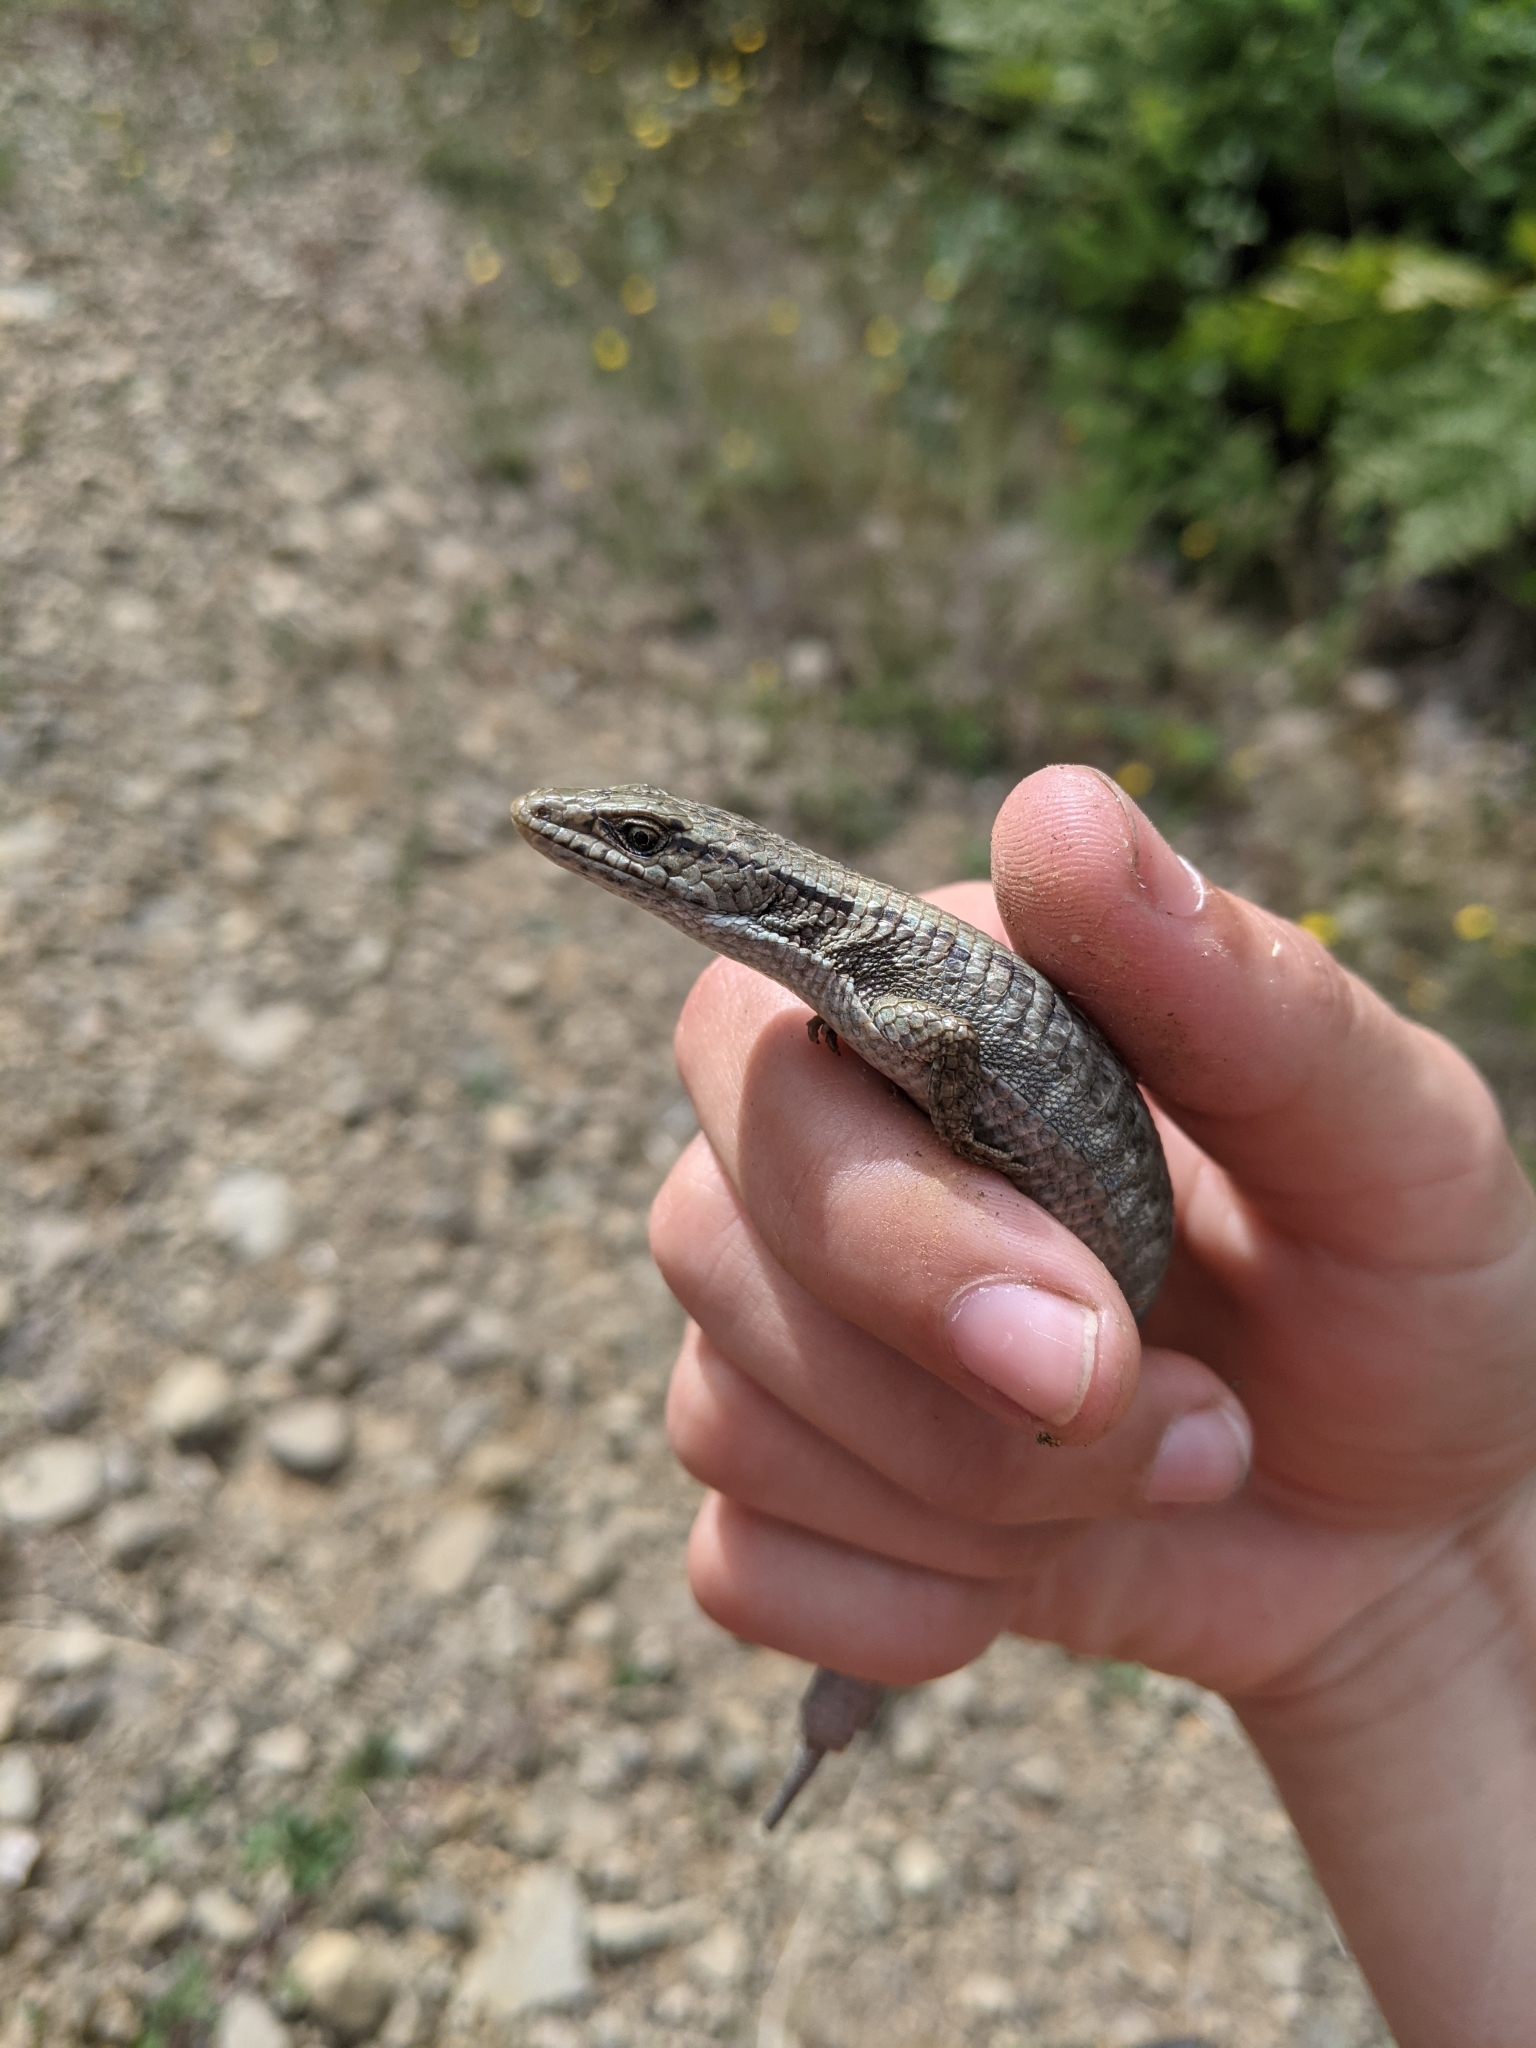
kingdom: Animalia
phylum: Chordata
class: Squamata
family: Anguidae
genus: Elgaria
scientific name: Elgaria coerulea
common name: Northern alligator lizard
